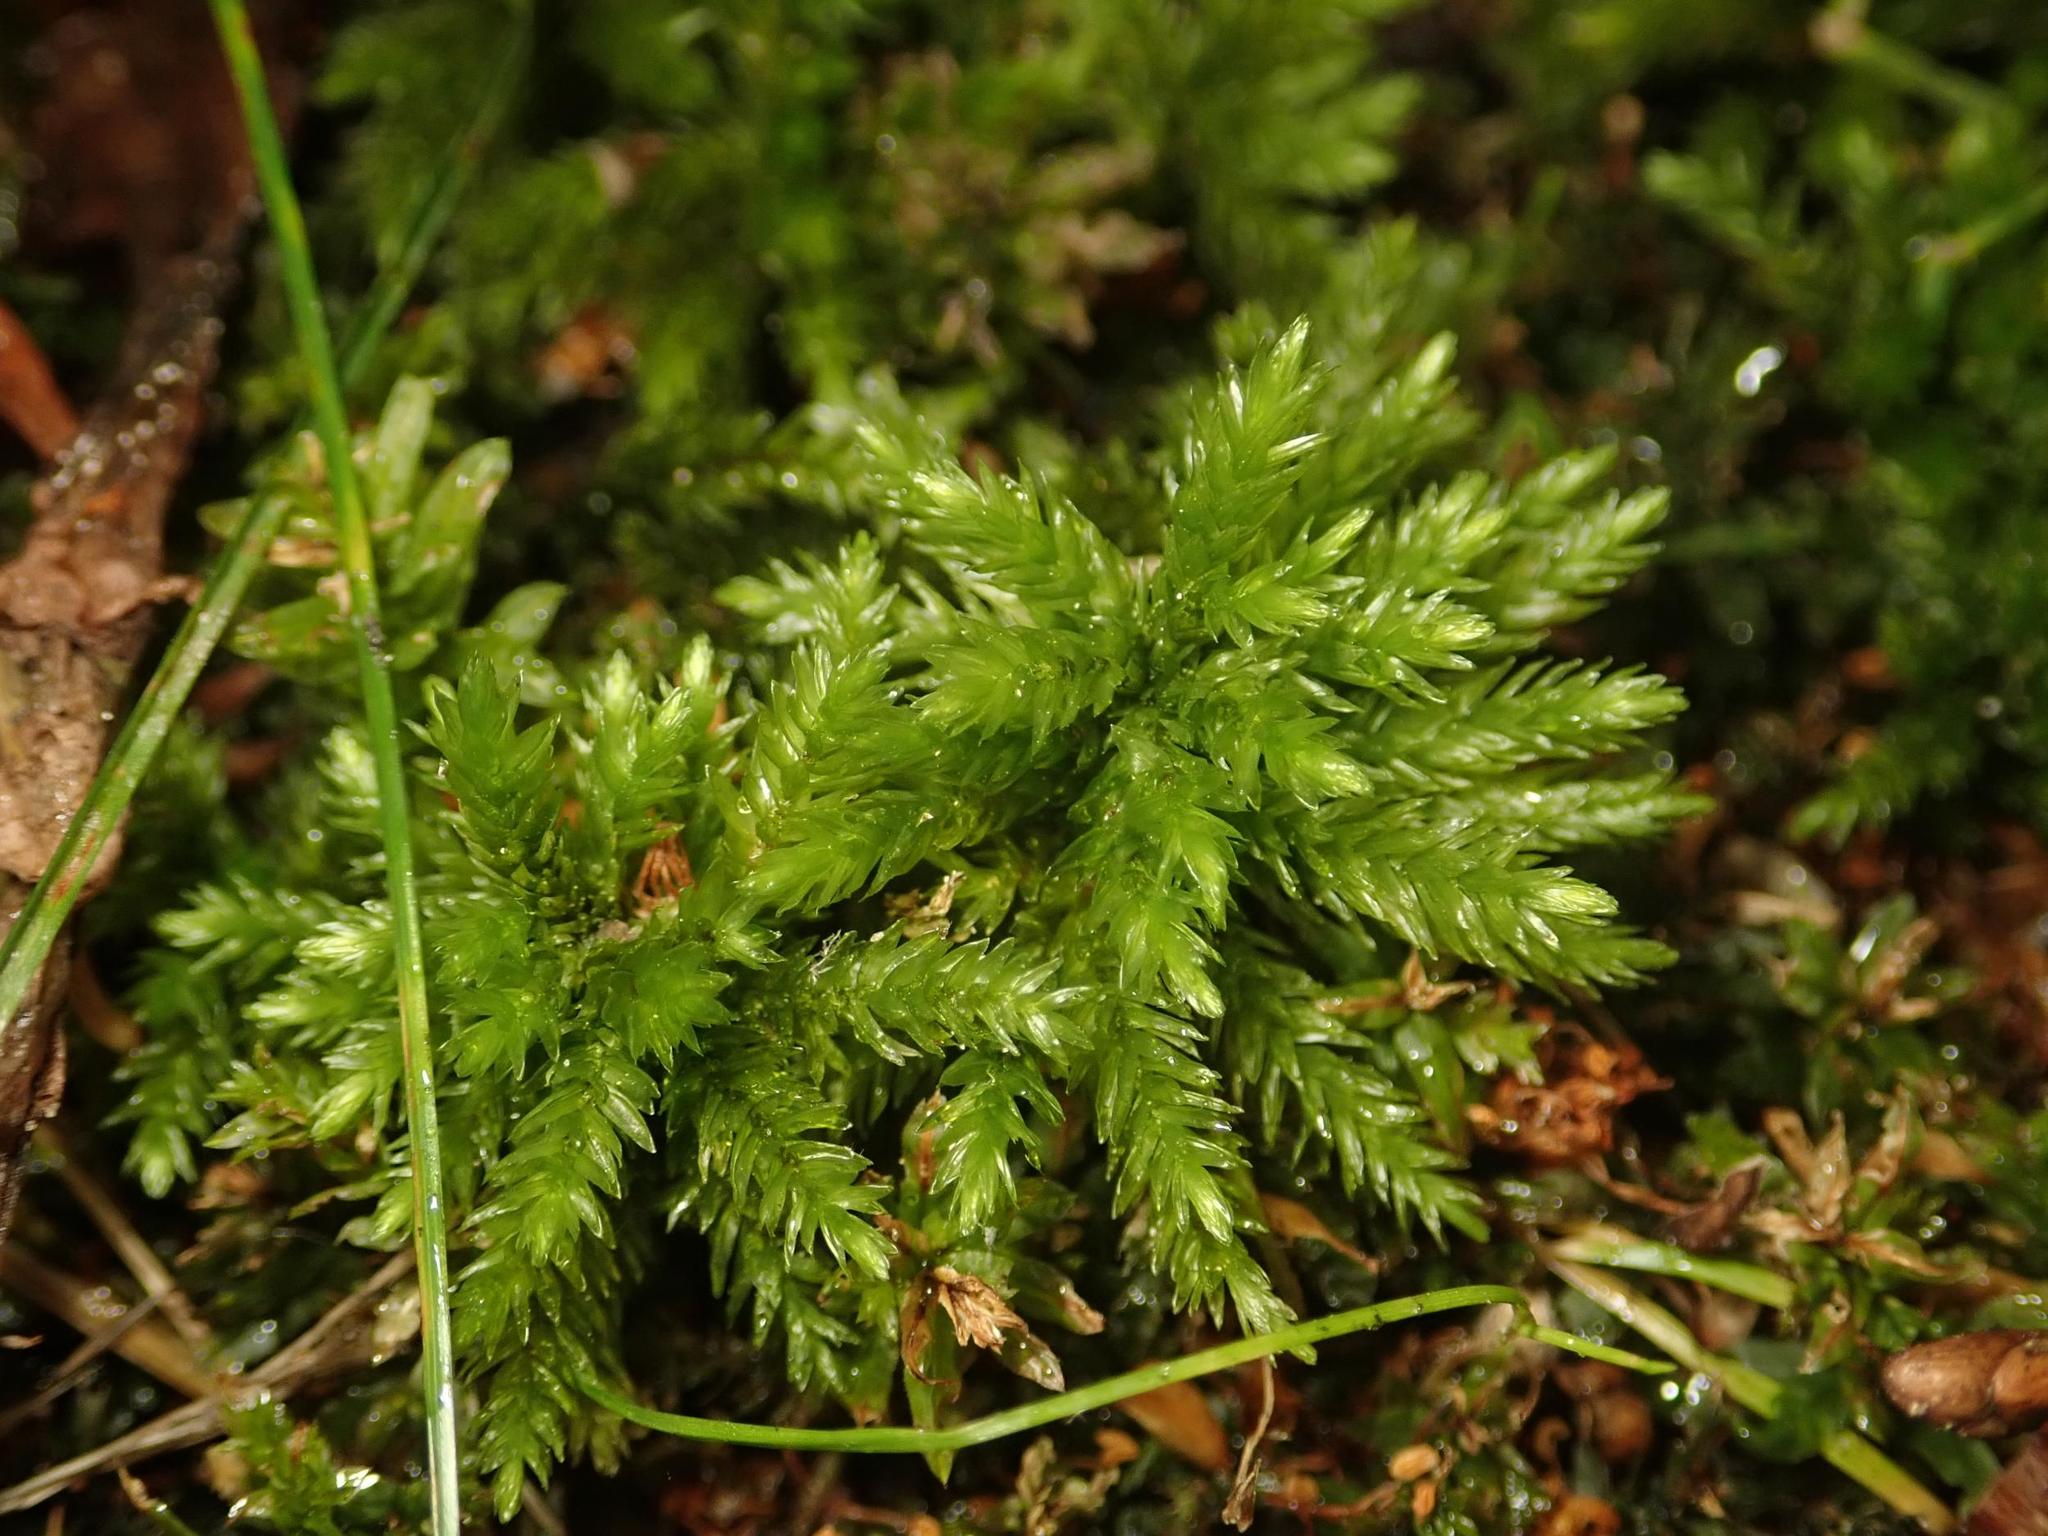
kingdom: Plantae
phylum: Bryophyta
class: Bryopsida
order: Hypnales
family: Climaciaceae
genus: Climacium
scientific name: Climacium dendroides
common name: Northern tree moss
